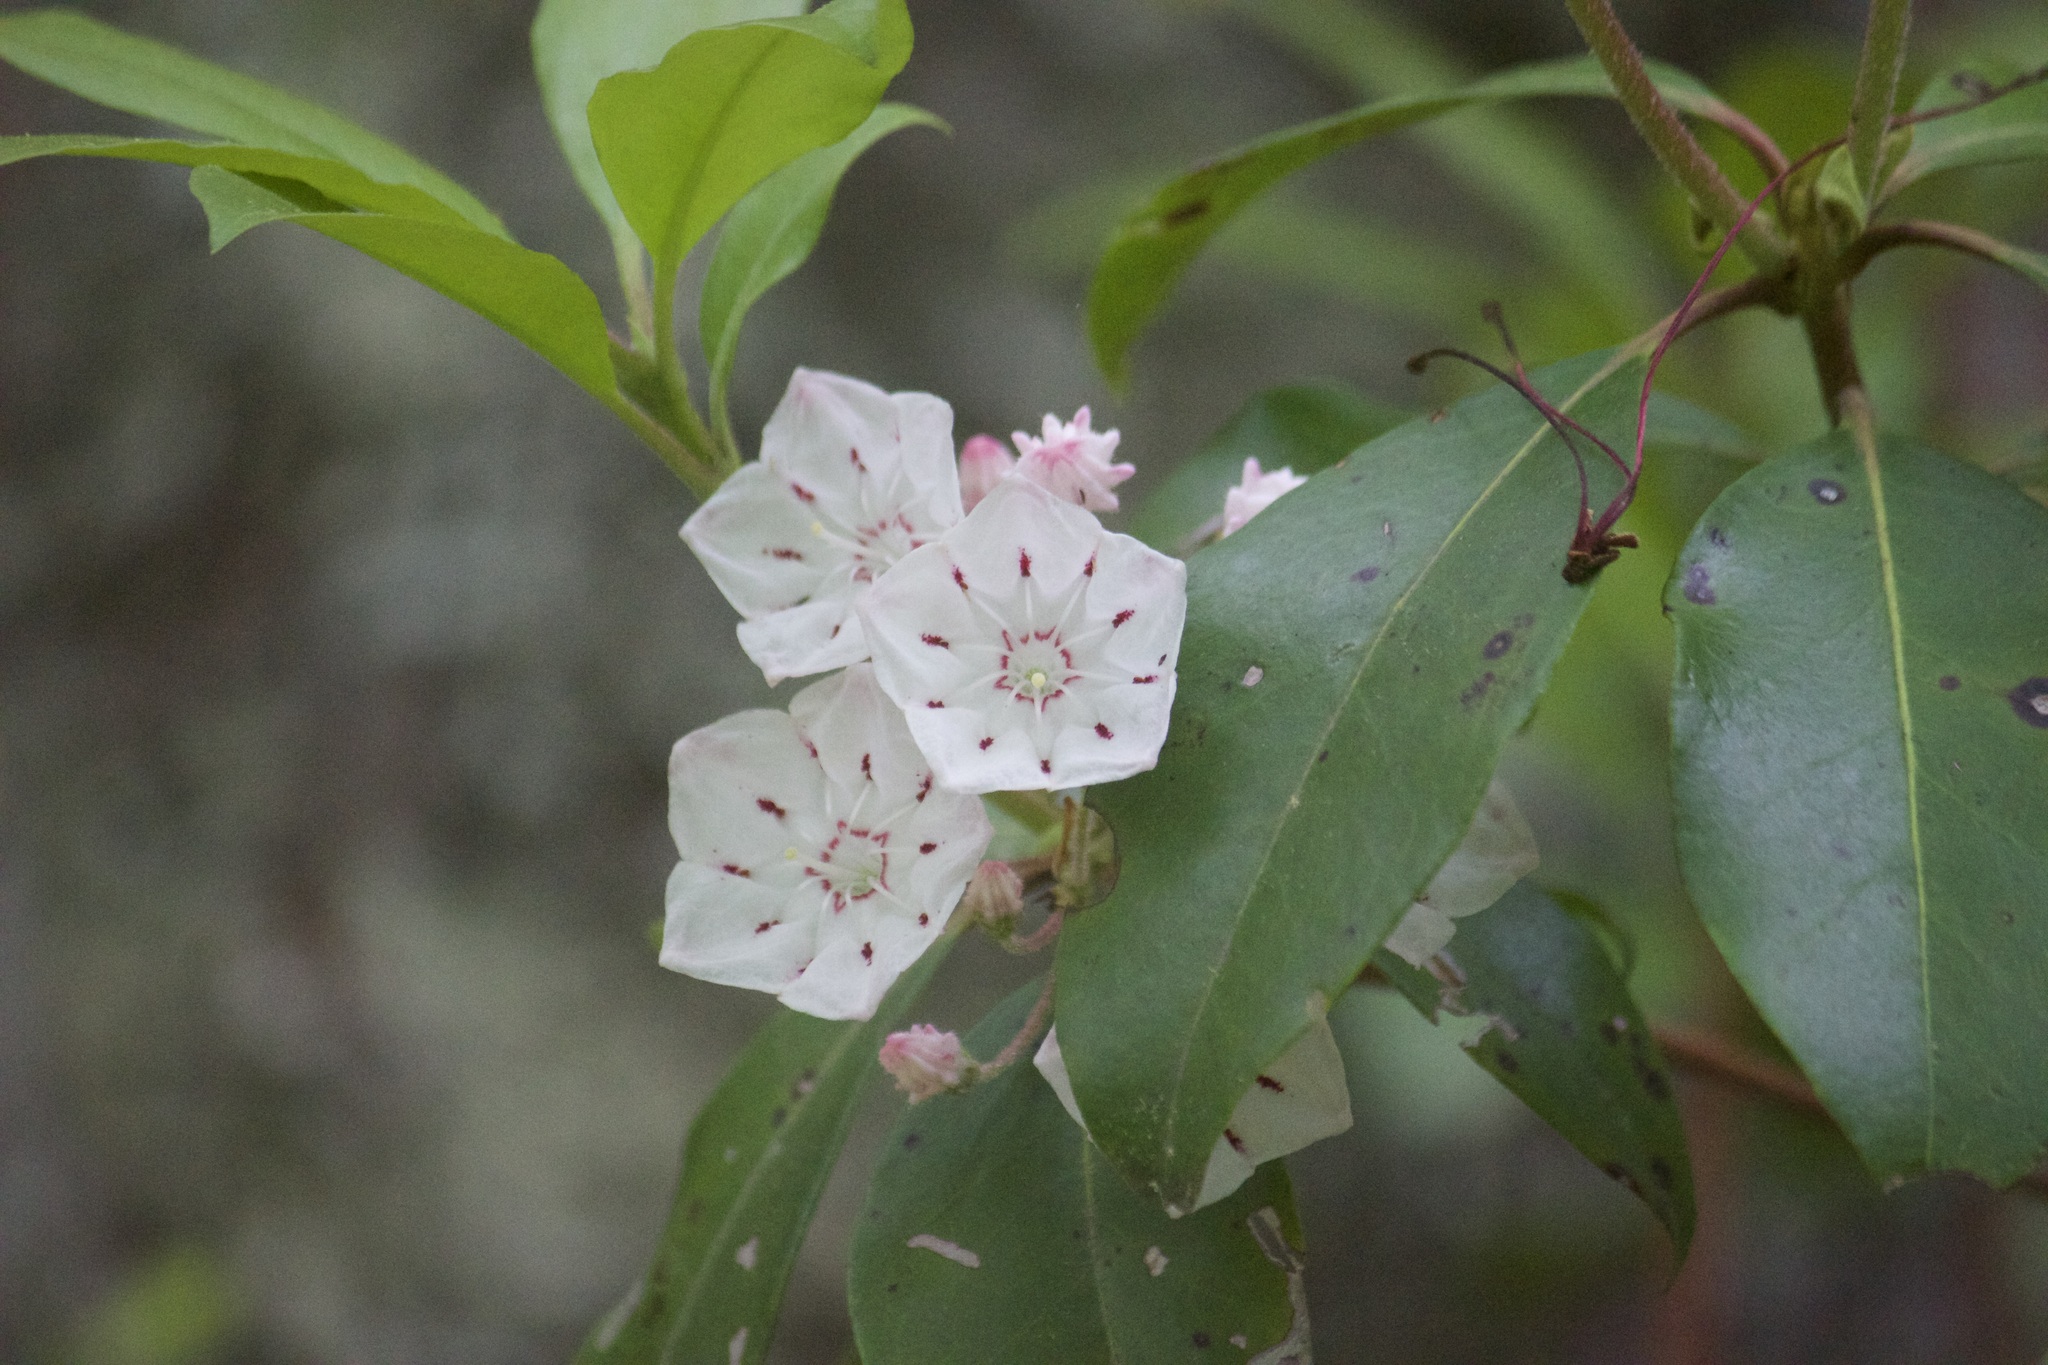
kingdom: Plantae
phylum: Tracheophyta
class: Magnoliopsida
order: Ericales
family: Ericaceae
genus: Kalmia
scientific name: Kalmia latifolia
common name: Mountain-laurel
